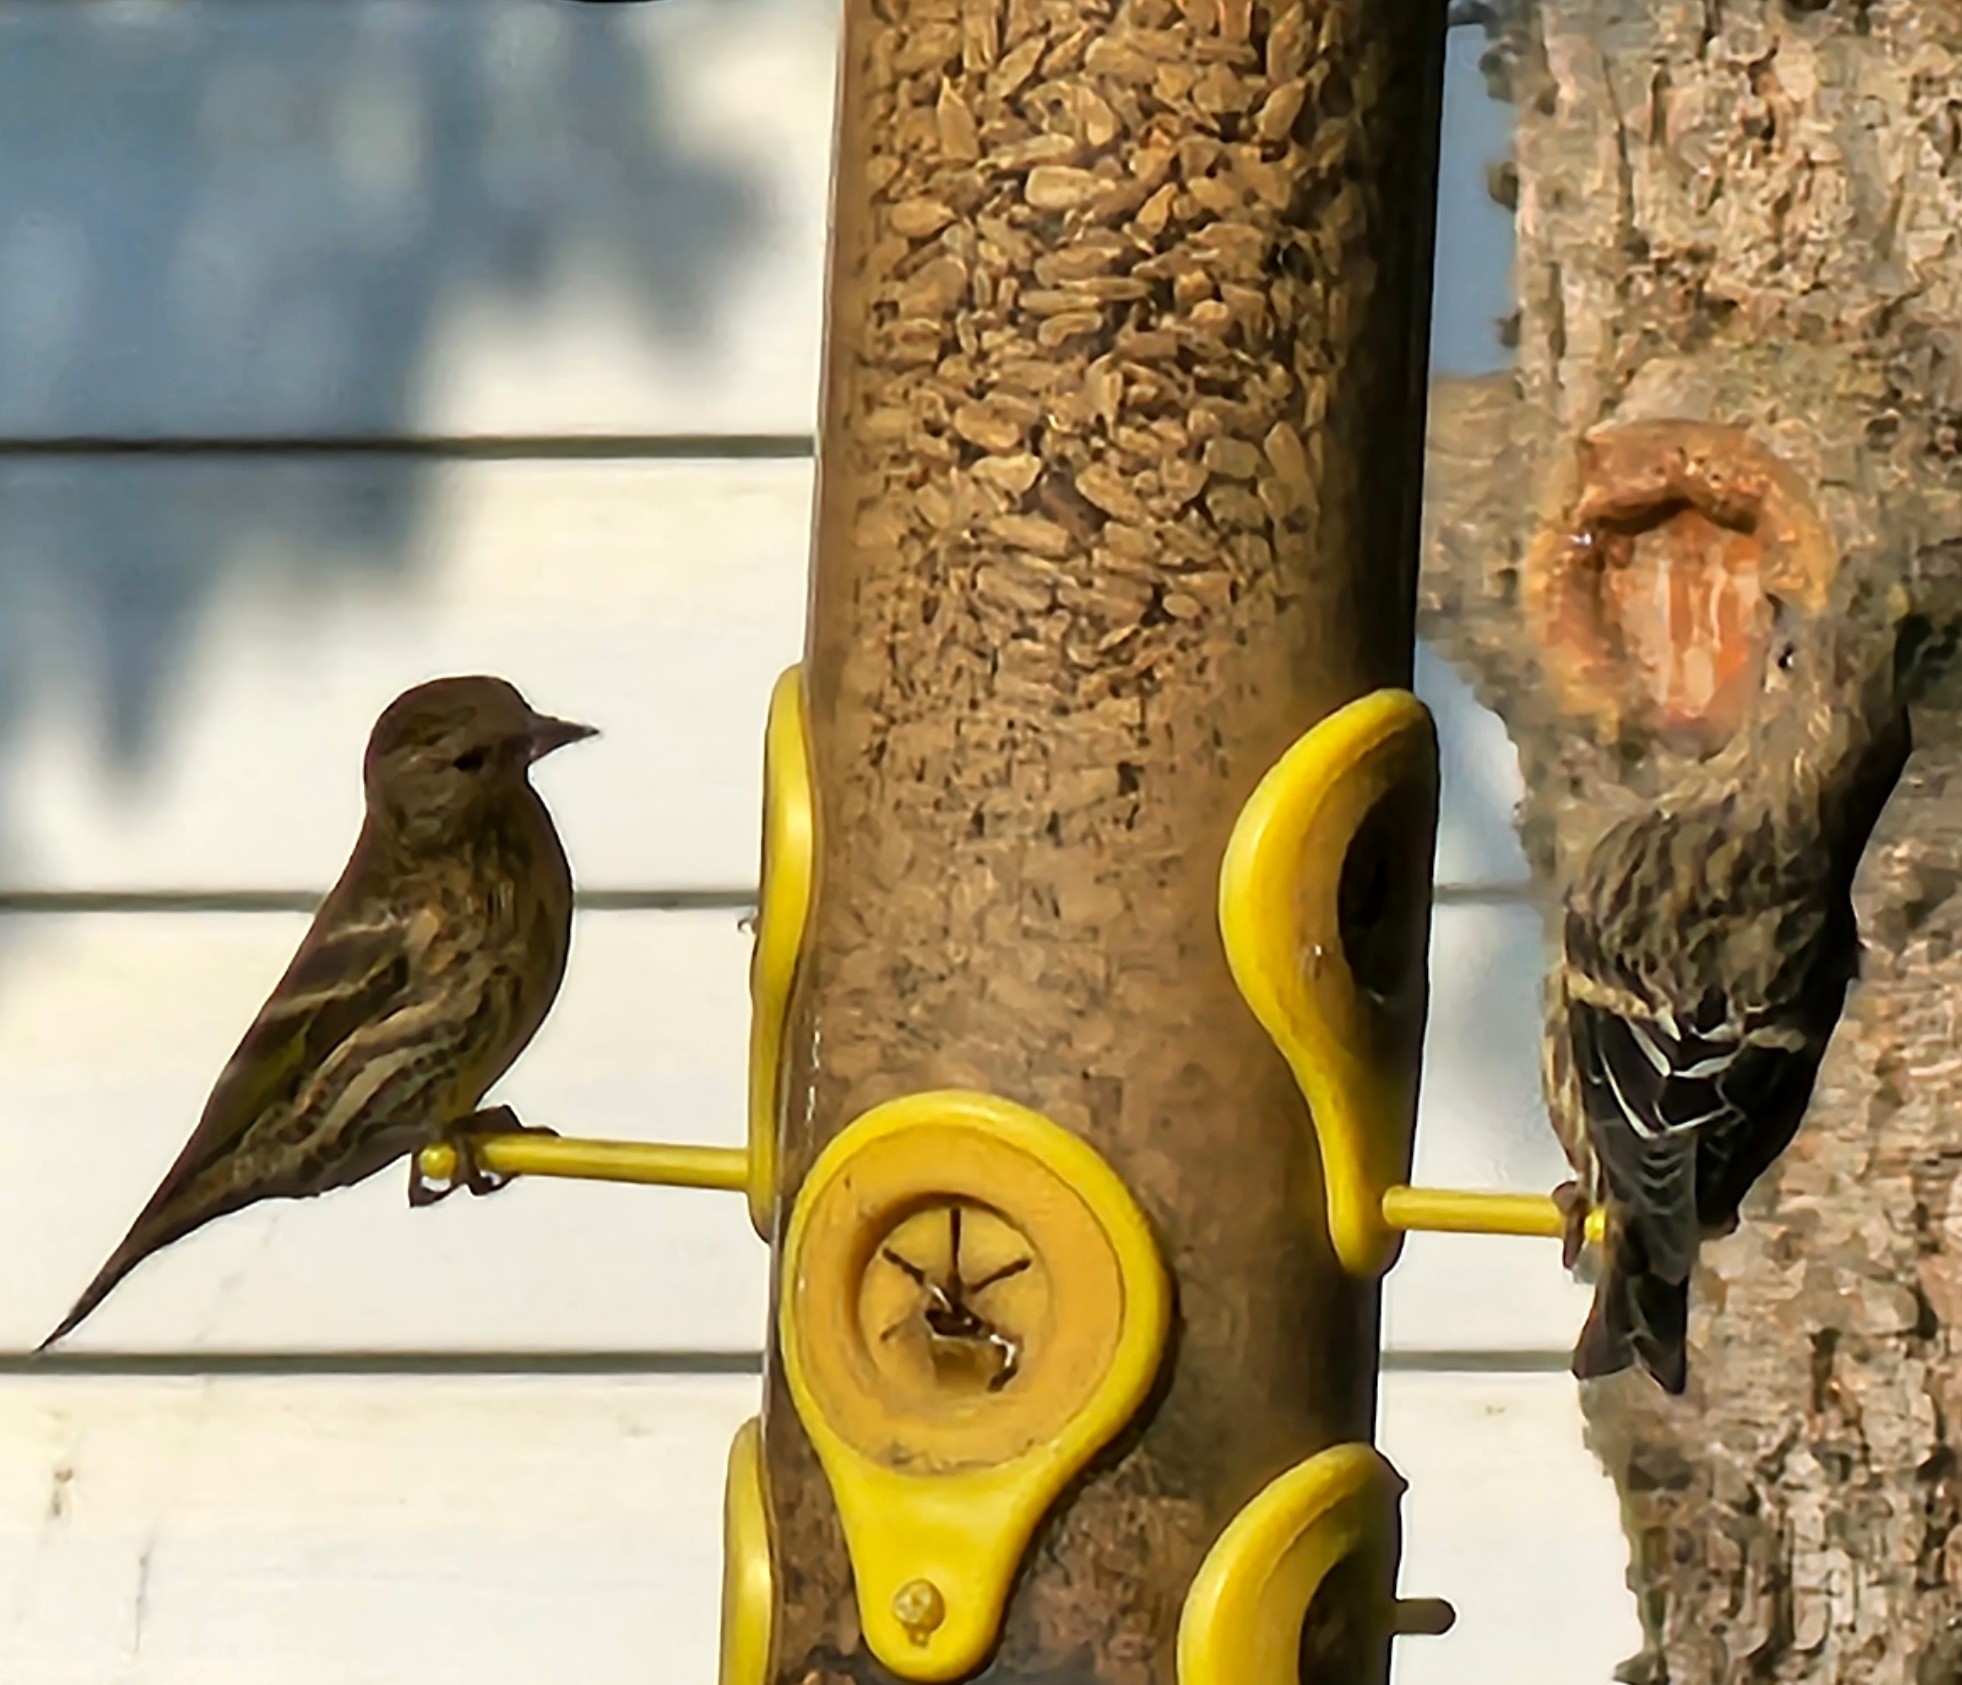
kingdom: Animalia
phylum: Chordata
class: Aves
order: Passeriformes
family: Fringillidae
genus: Spinus
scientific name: Spinus pinus
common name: Pine siskin
